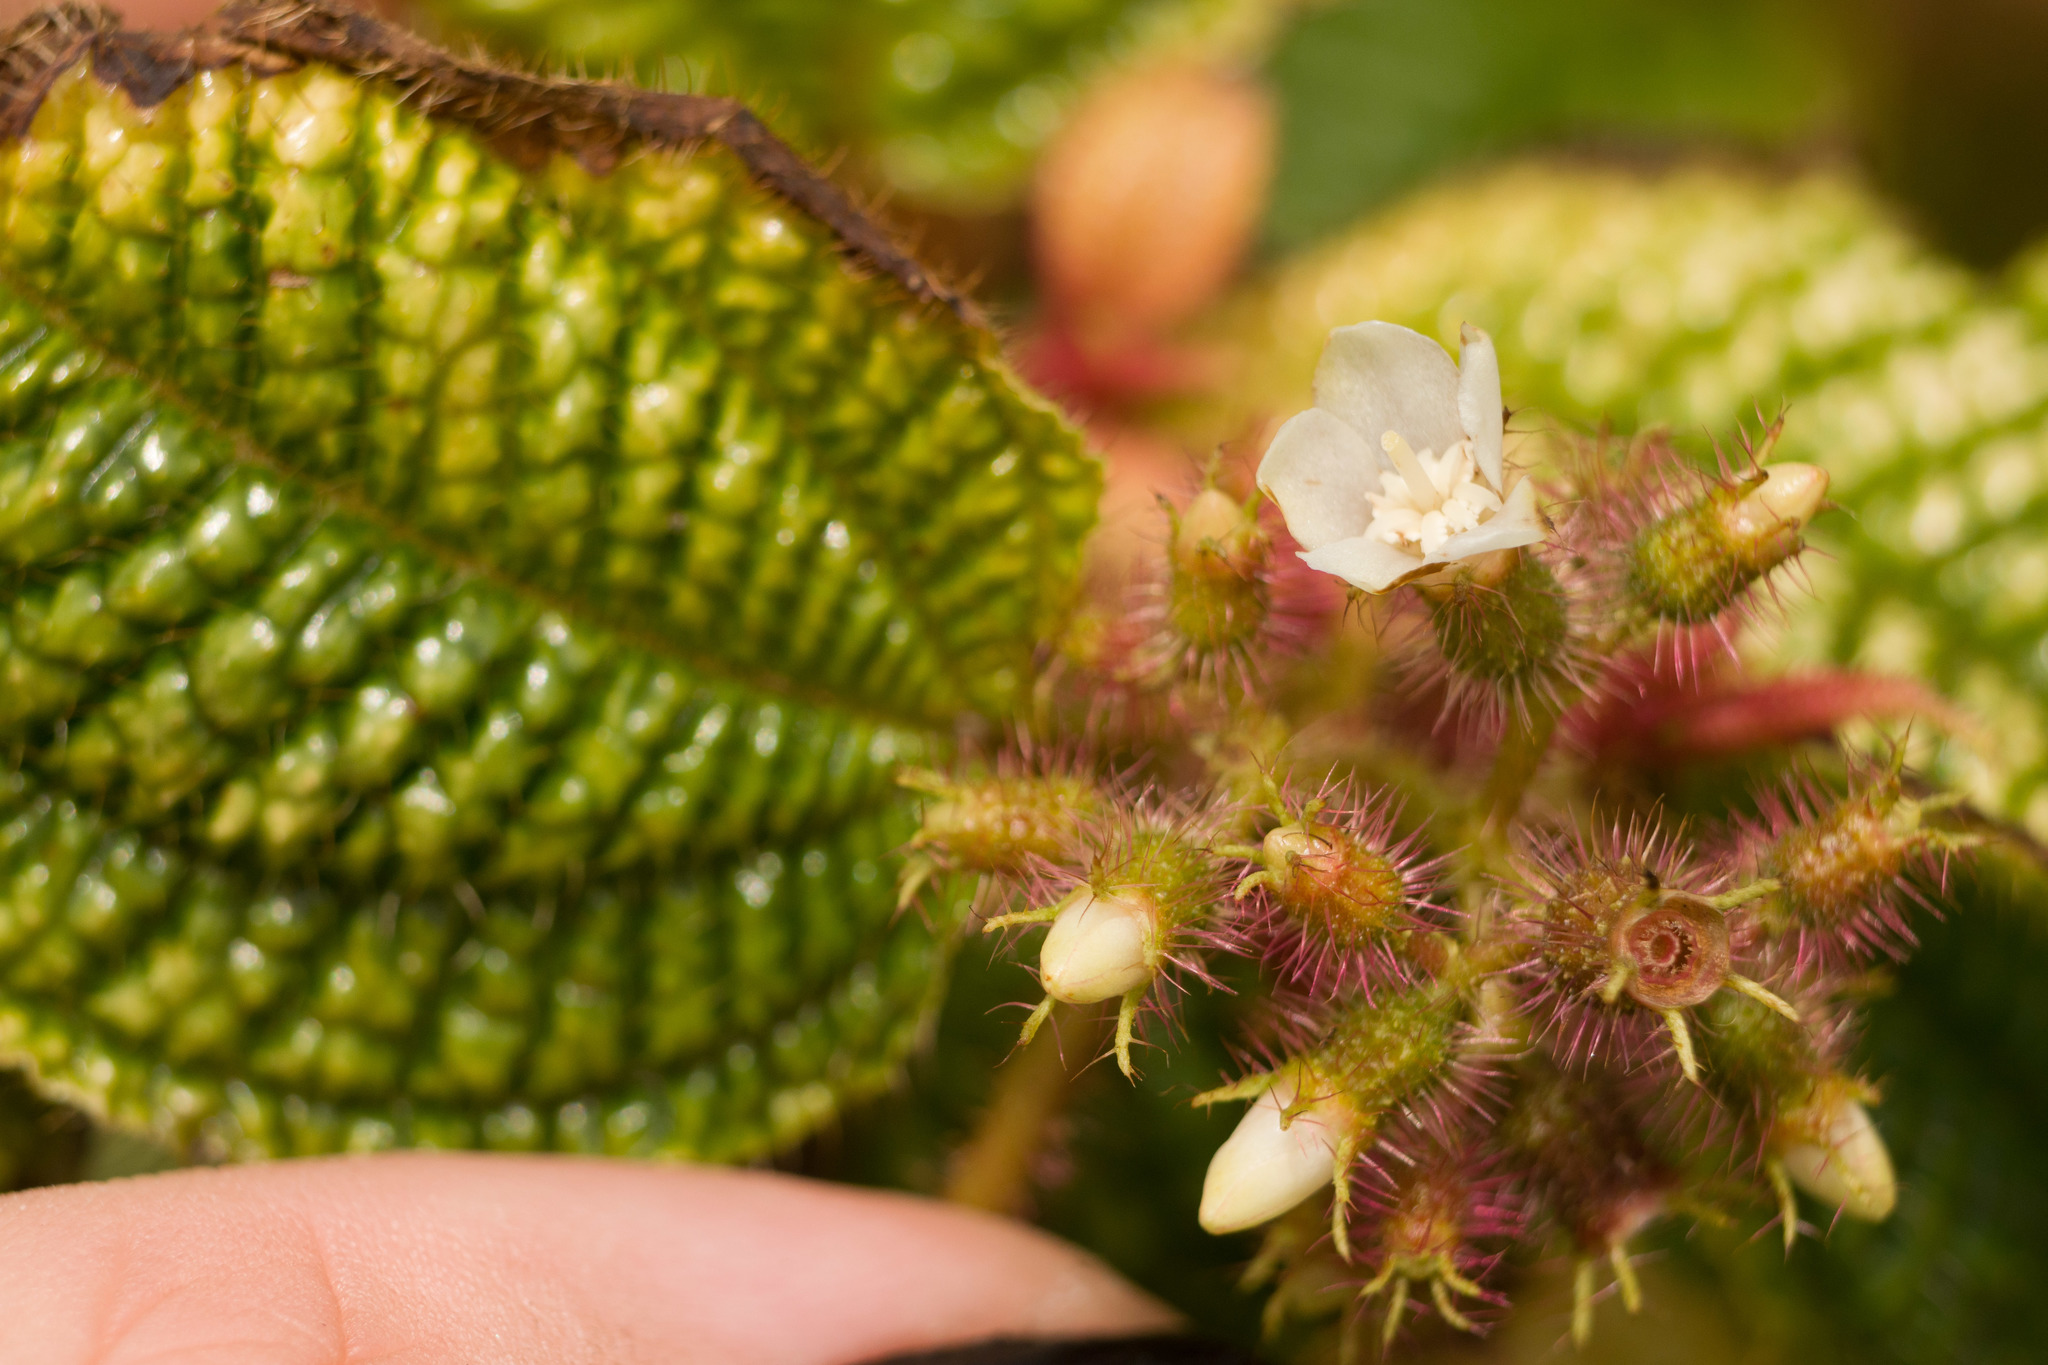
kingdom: Plantae
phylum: Tracheophyta
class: Magnoliopsida
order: Myrtales
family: Melastomataceae
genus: Miconia
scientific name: Miconia crenata
